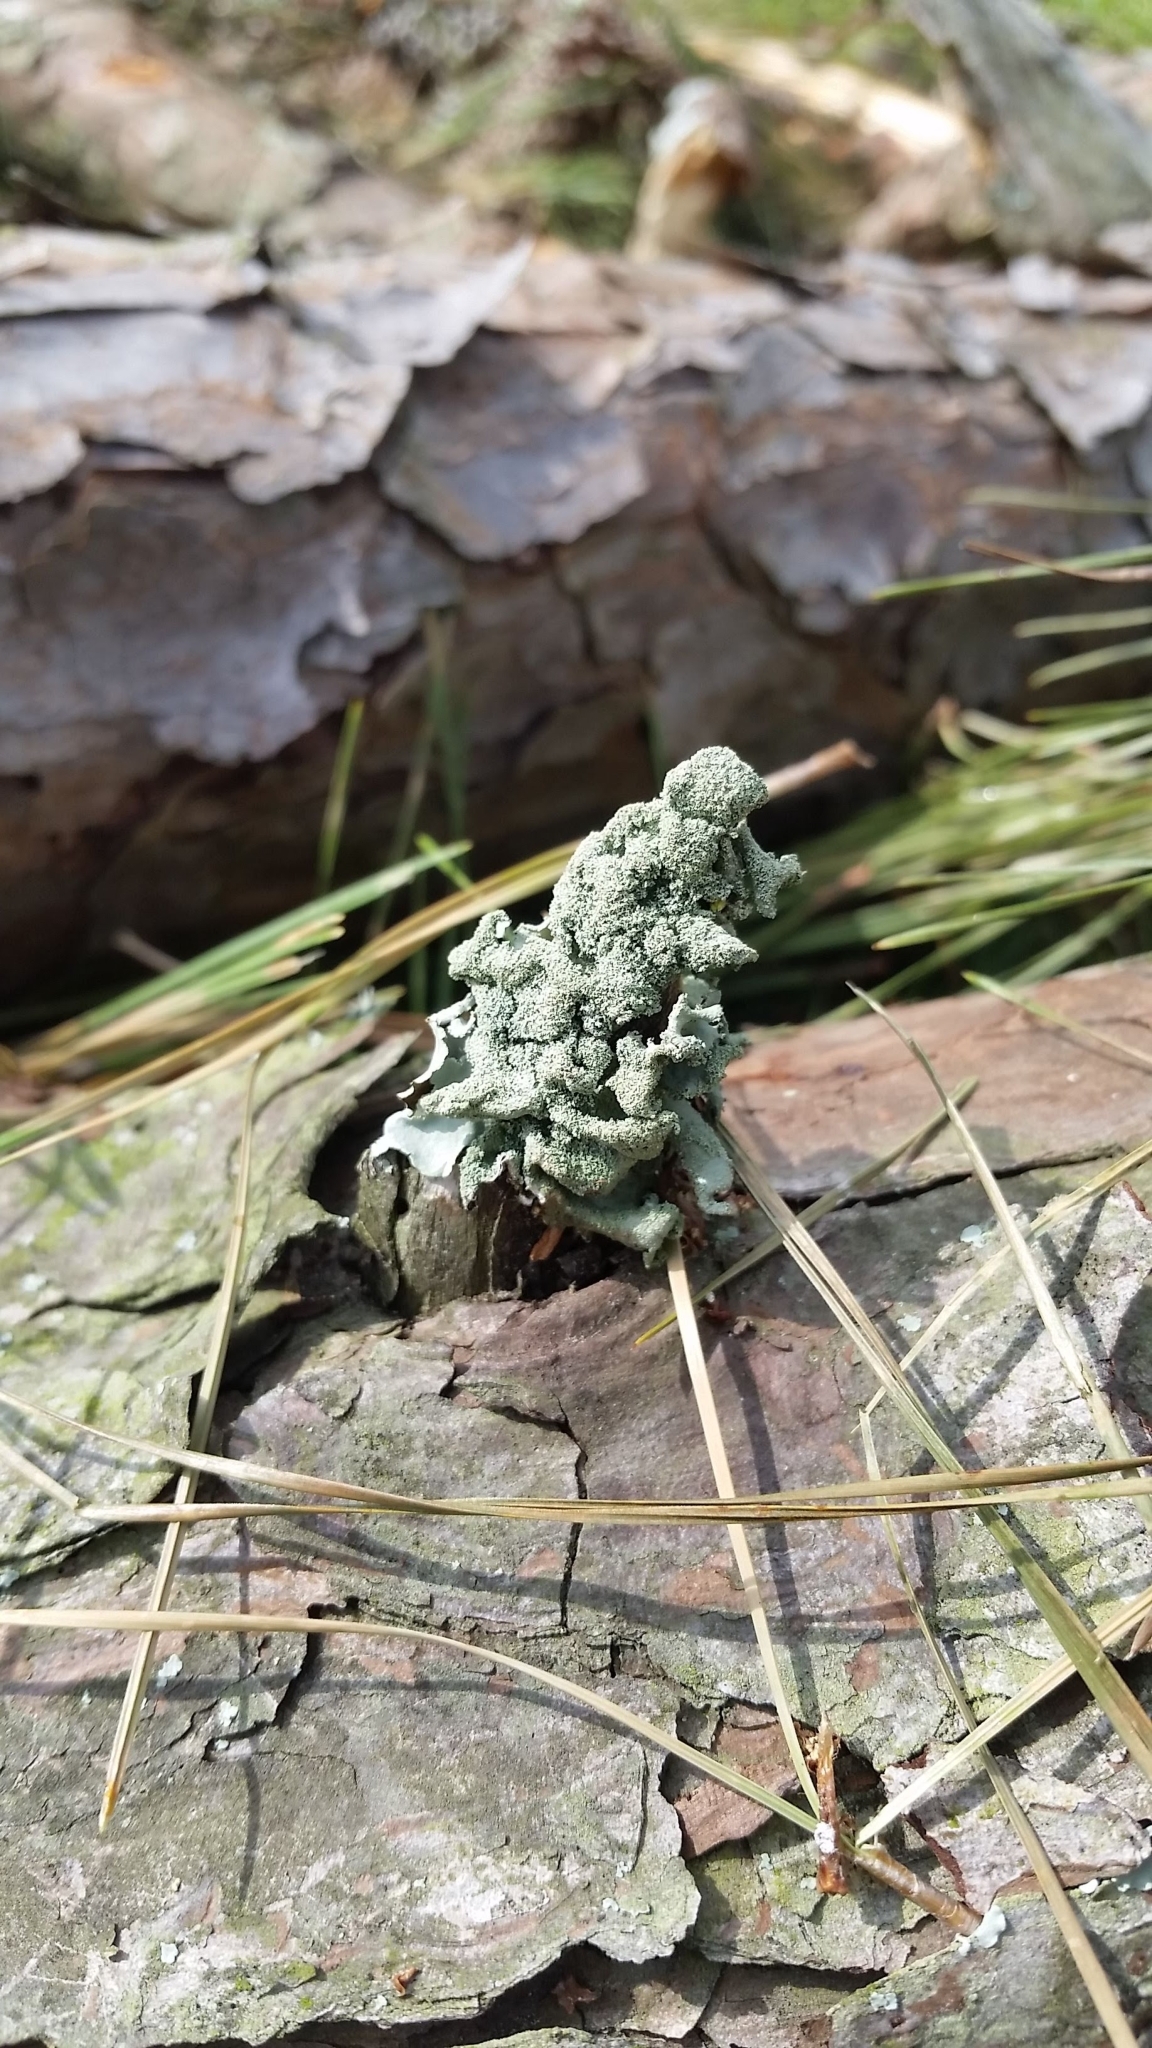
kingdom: Fungi
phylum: Ascomycota
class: Lecanoromycetes
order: Lecanorales
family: Parmeliaceae
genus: Parmotrema
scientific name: Parmotrema tinctorum
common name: Old gray ruffles
